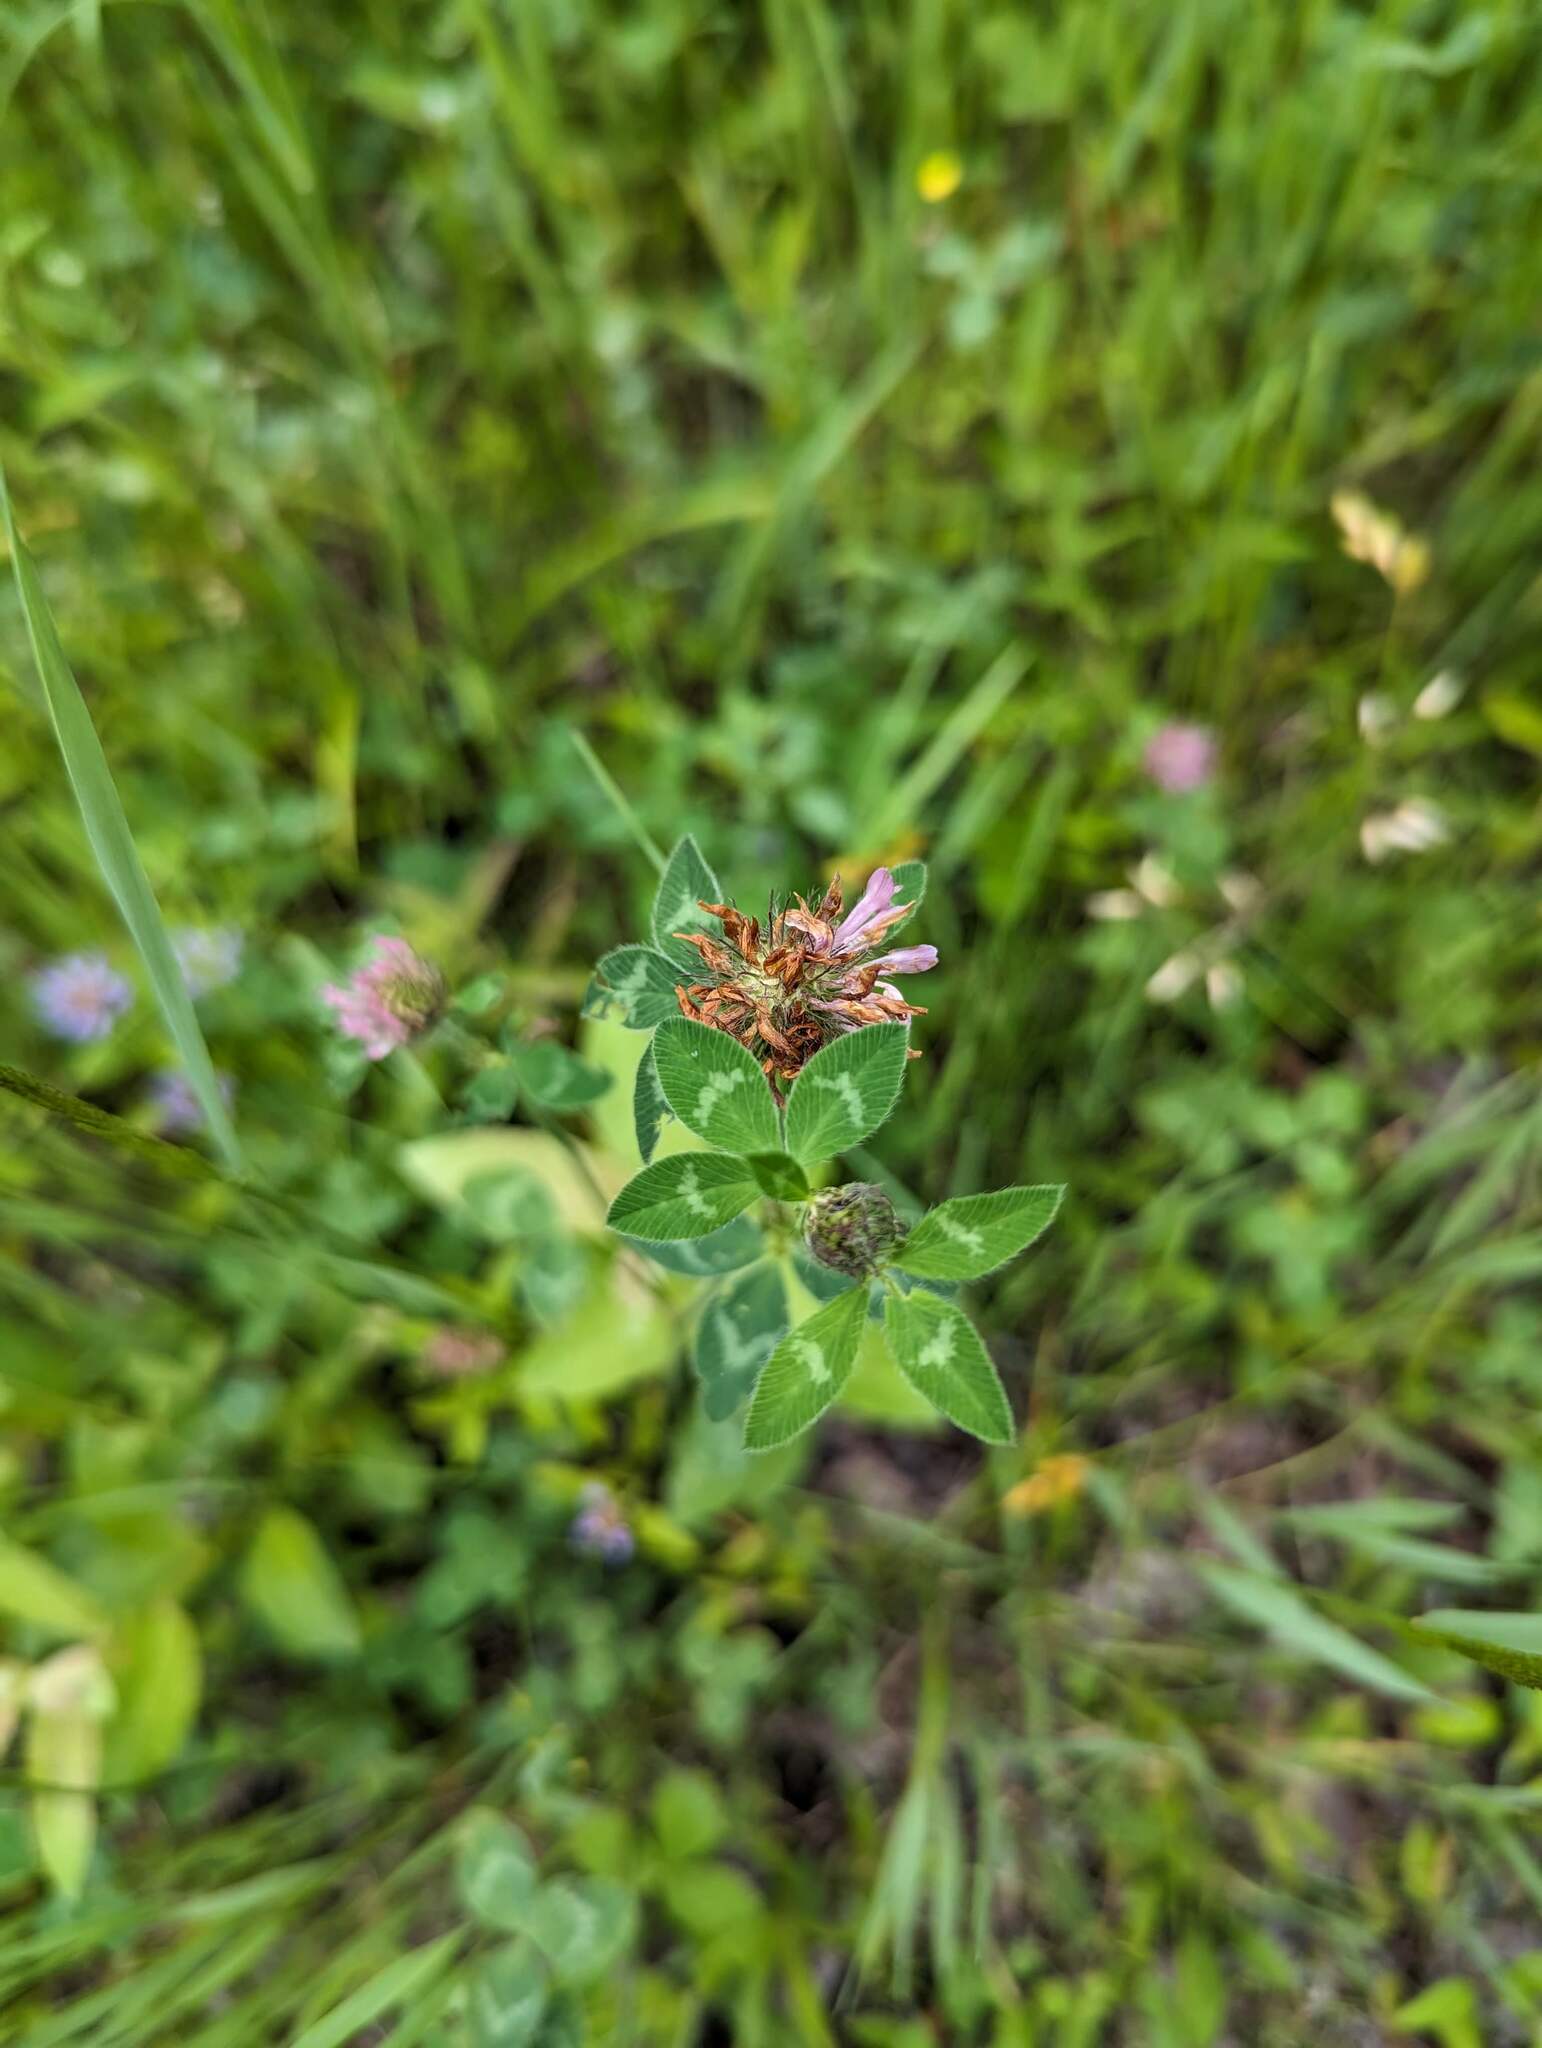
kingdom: Plantae
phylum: Tracheophyta
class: Magnoliopsida
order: Fabales
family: Fabaceae
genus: Trifolium
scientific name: Trifolium pratense
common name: Red clover
